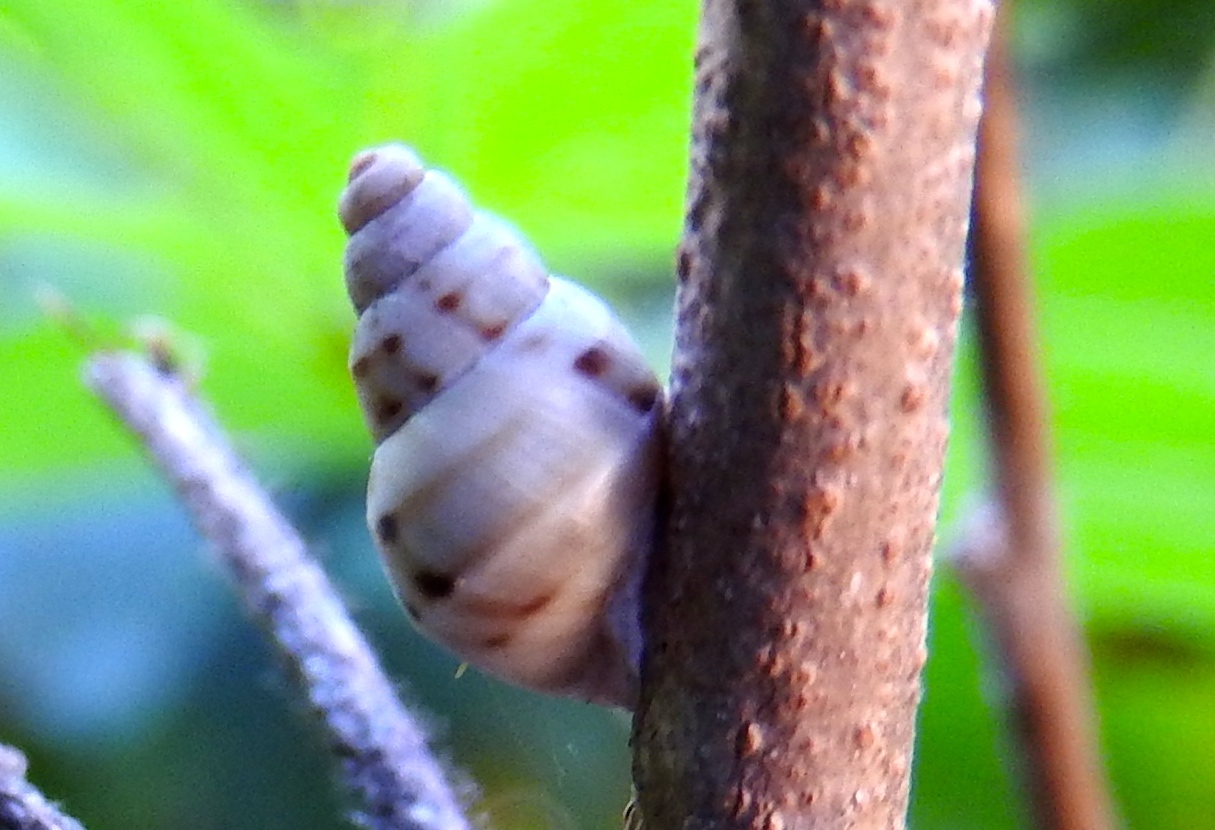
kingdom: Animalia
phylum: Mollusca
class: Gastropoda
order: Stylommatophora
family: Orthalicidae
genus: Orthalicus
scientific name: Orthalicus
